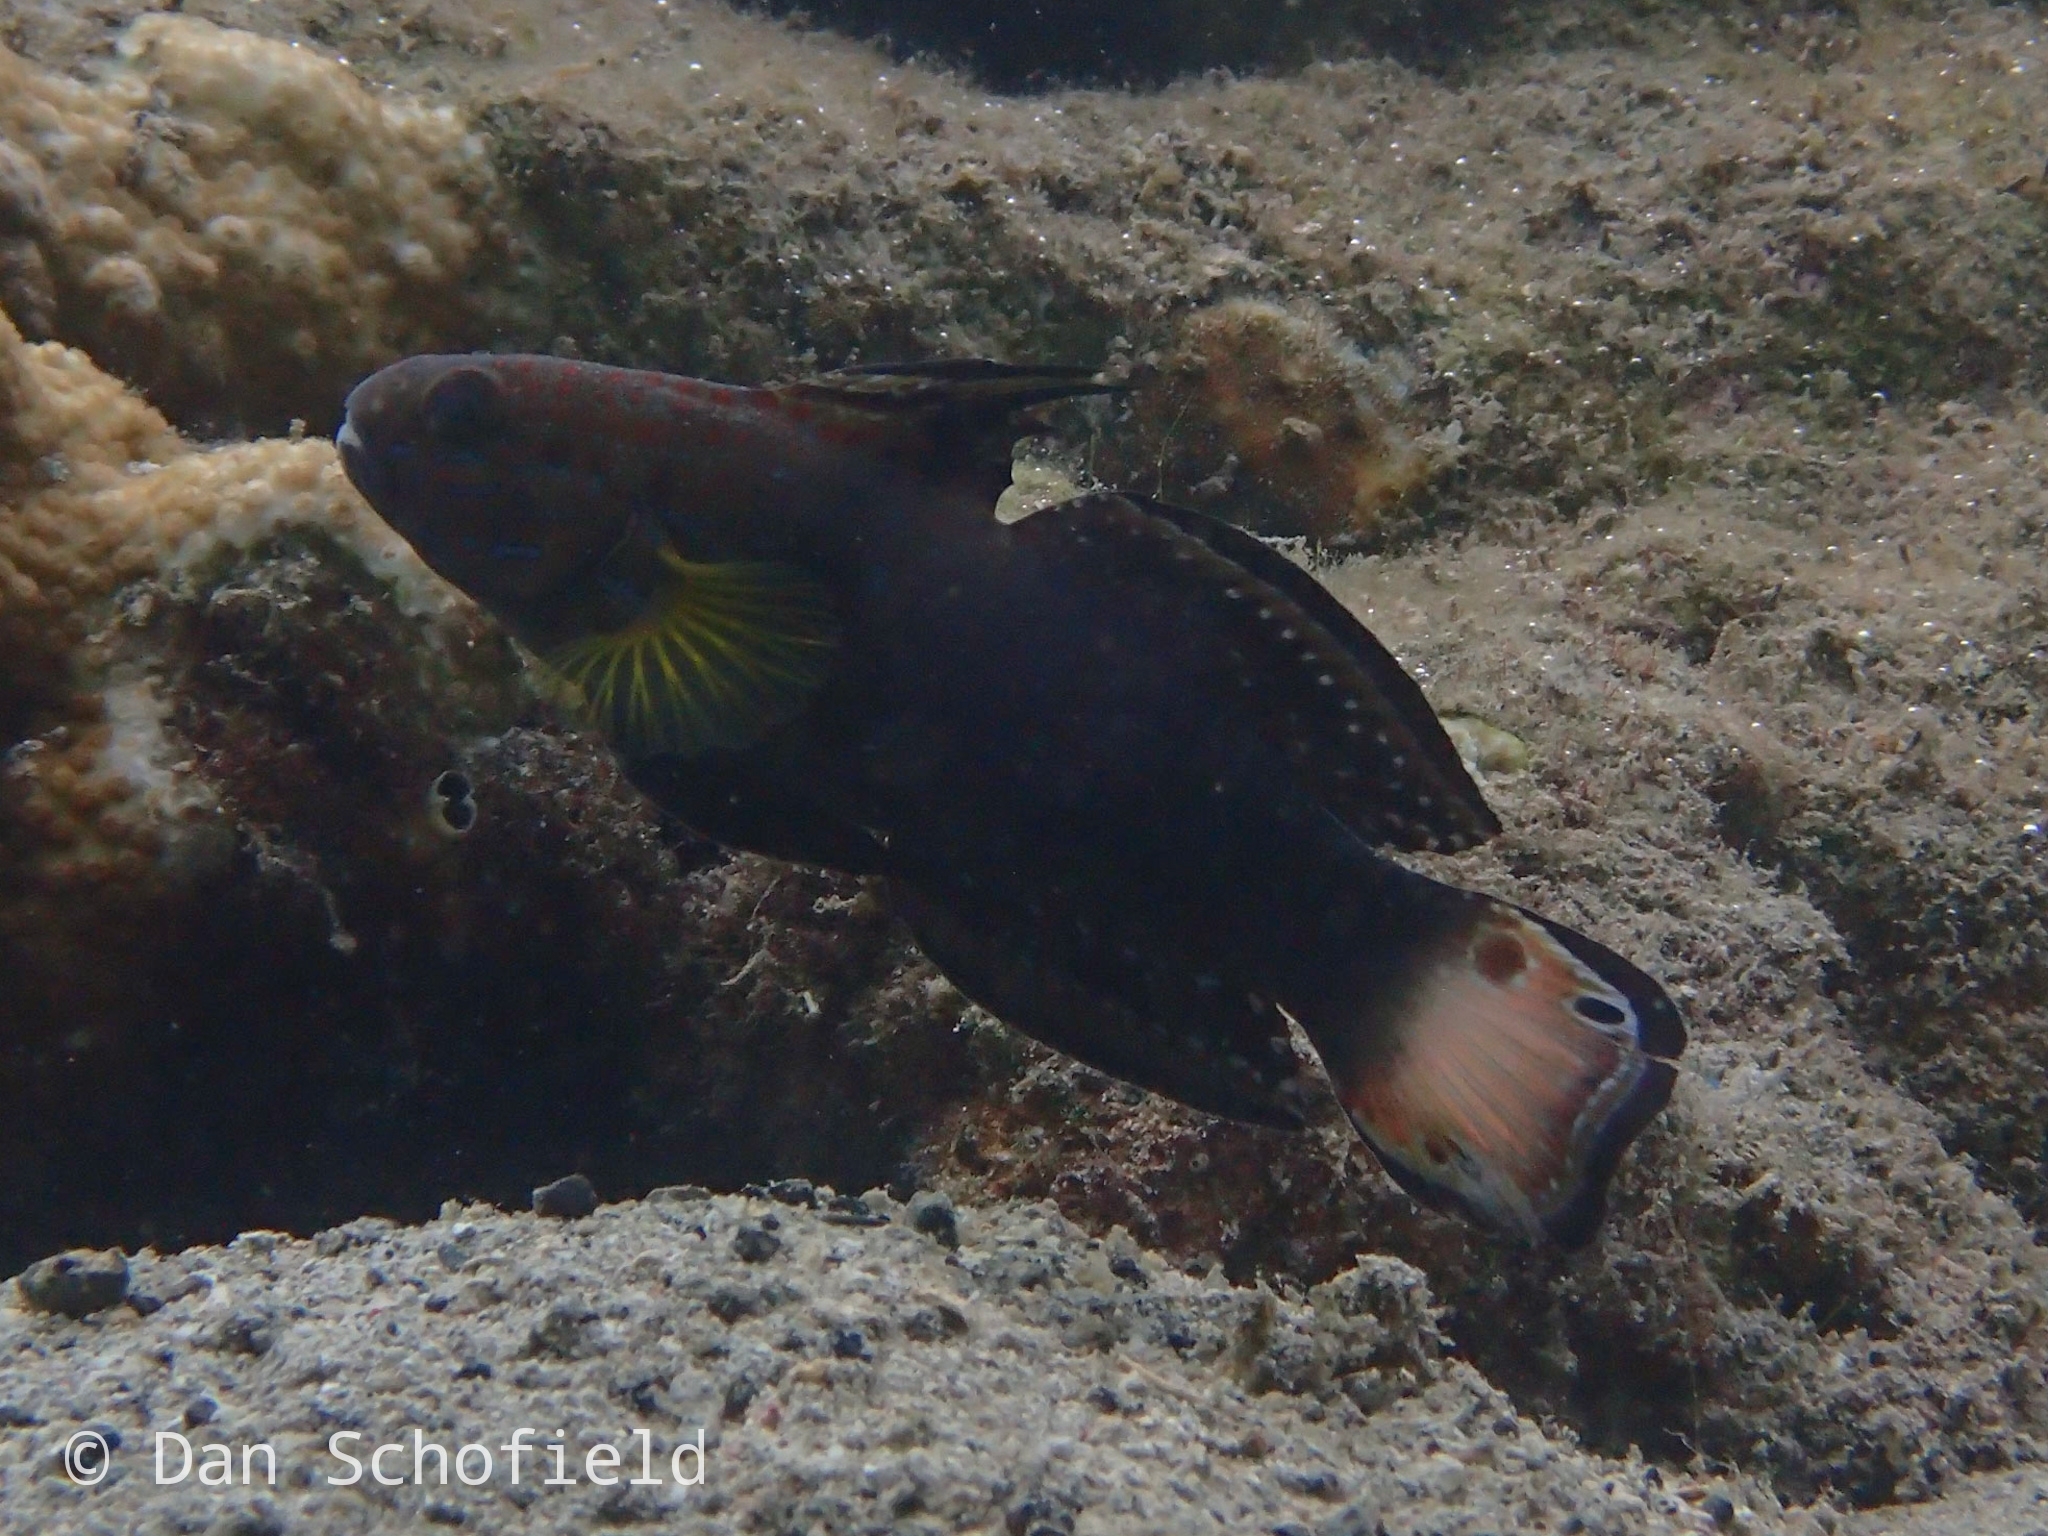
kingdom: Animalia
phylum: Chordata
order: Perciformes
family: Gobiidae
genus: Amblygobius
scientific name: Amblygobius phalaena
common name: Banded goby
